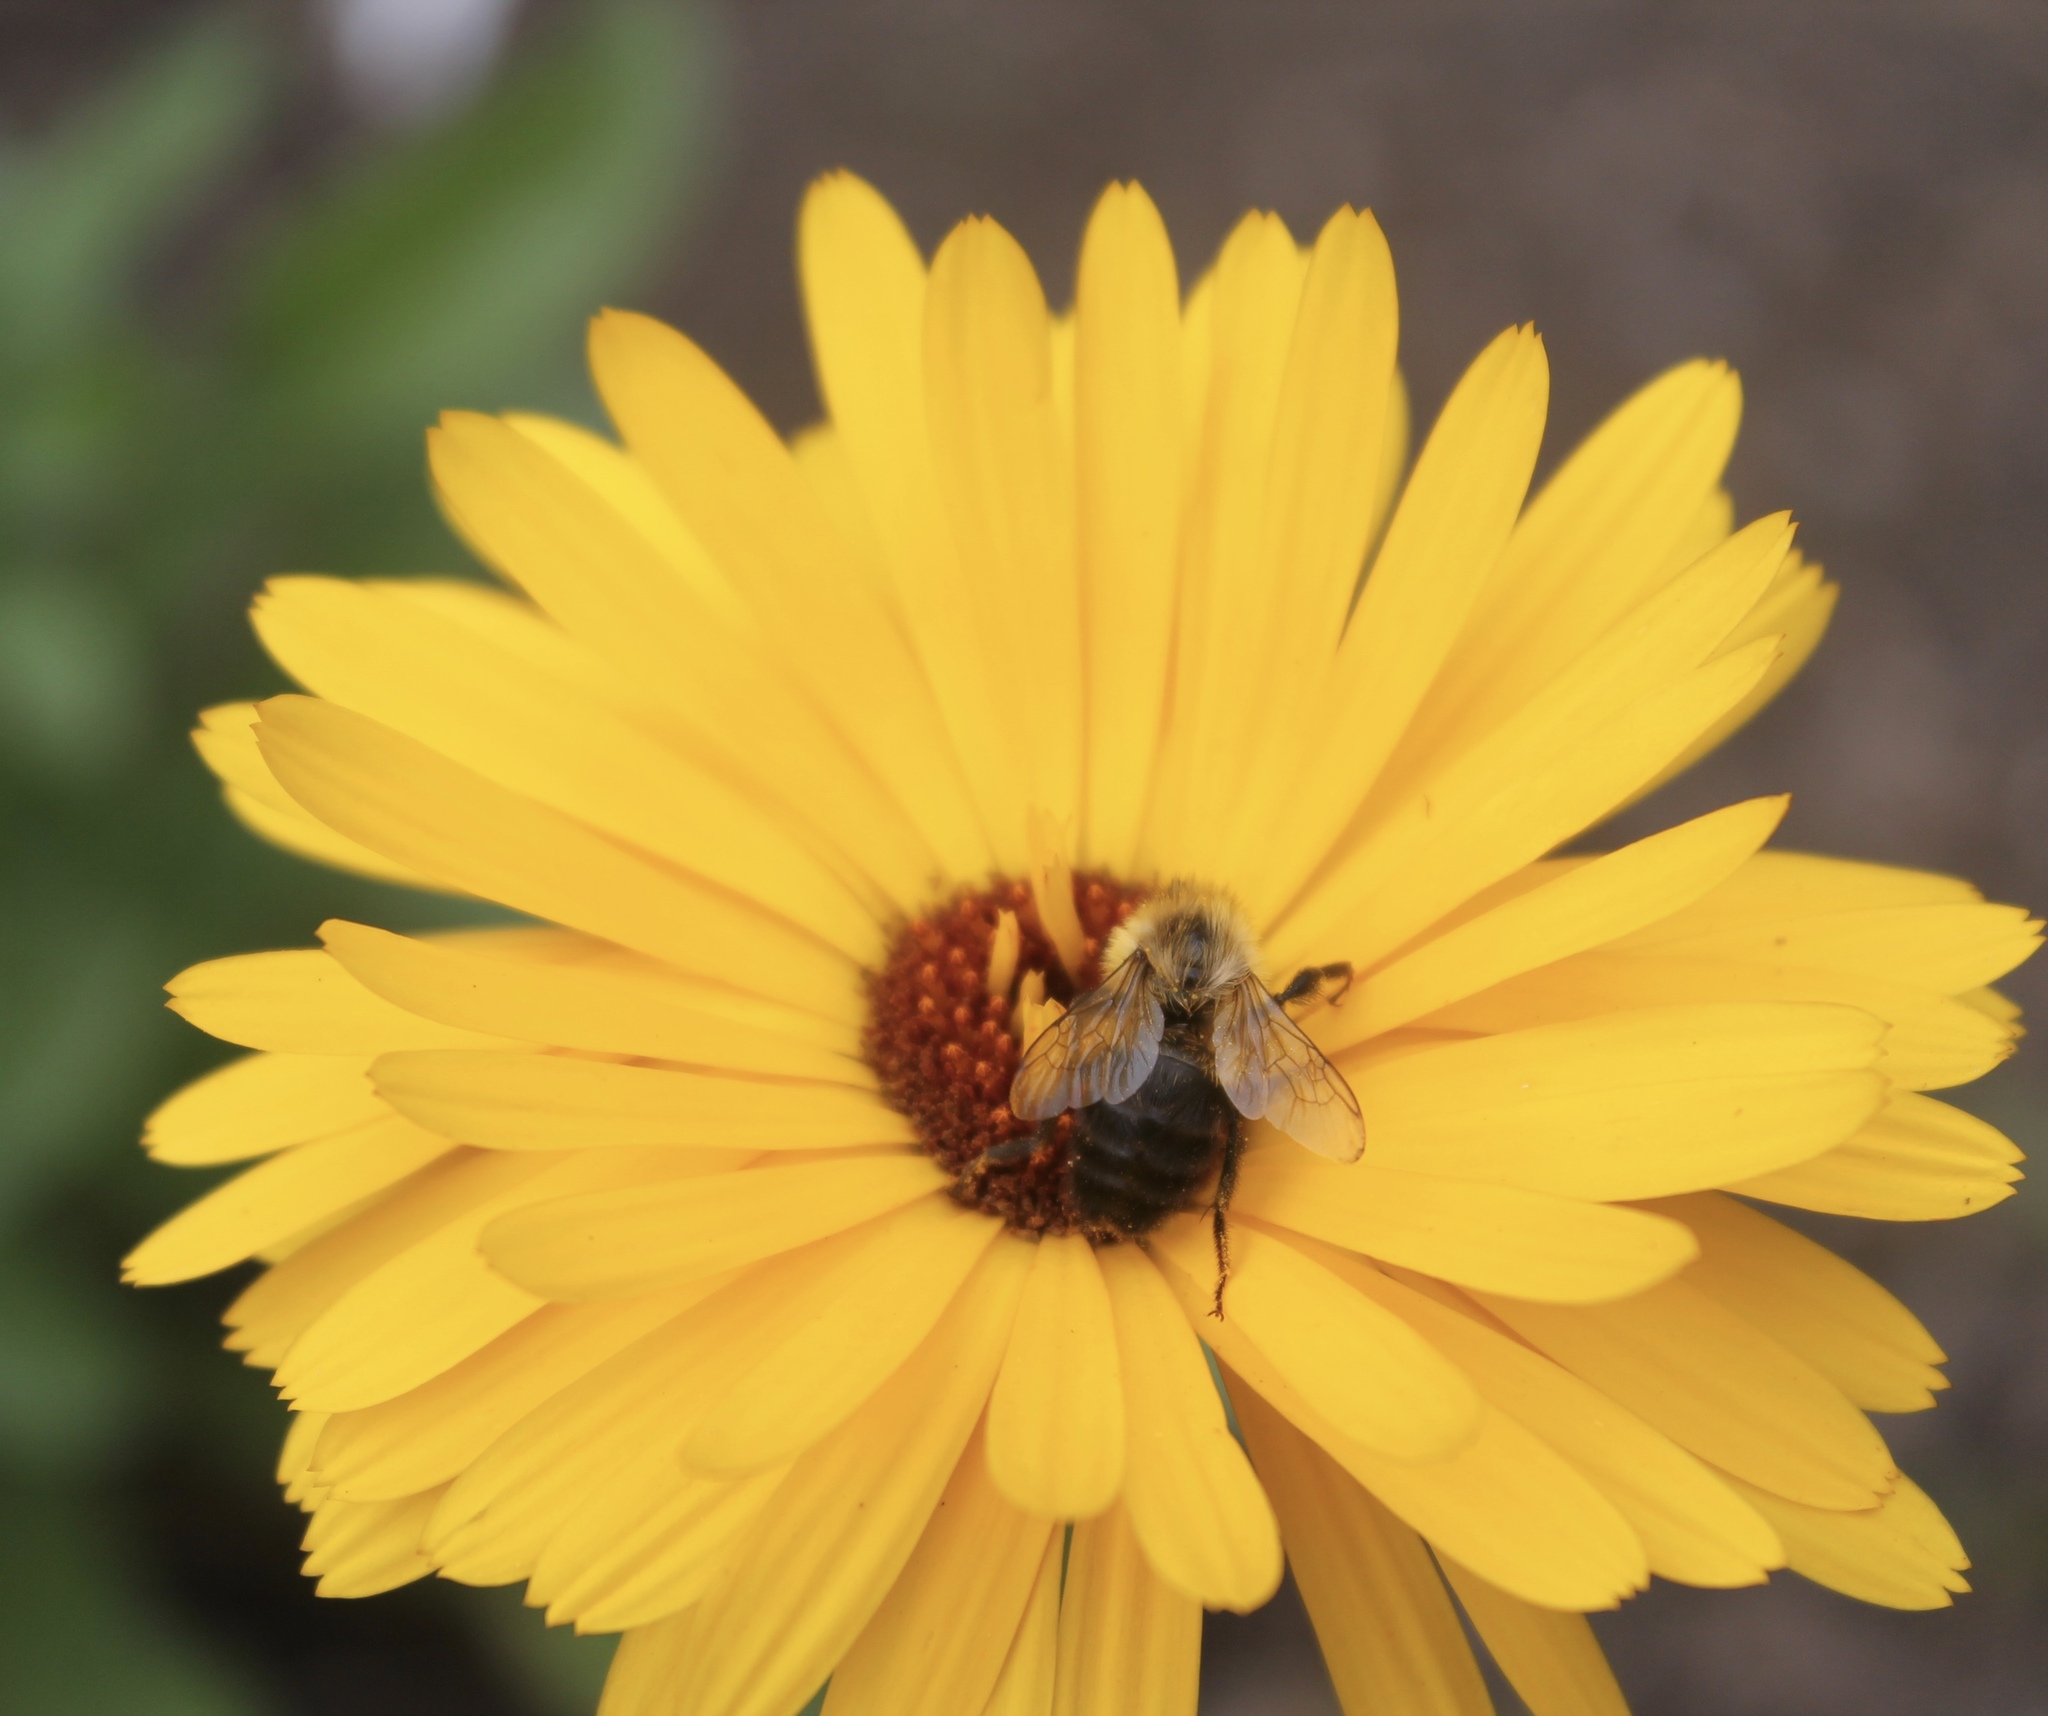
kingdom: Animalia
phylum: Arthropoda
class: Insecta
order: Hymenoptera
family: Apidae
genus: Bombus
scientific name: Bombus impatiens
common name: Common eastern bumble bee
